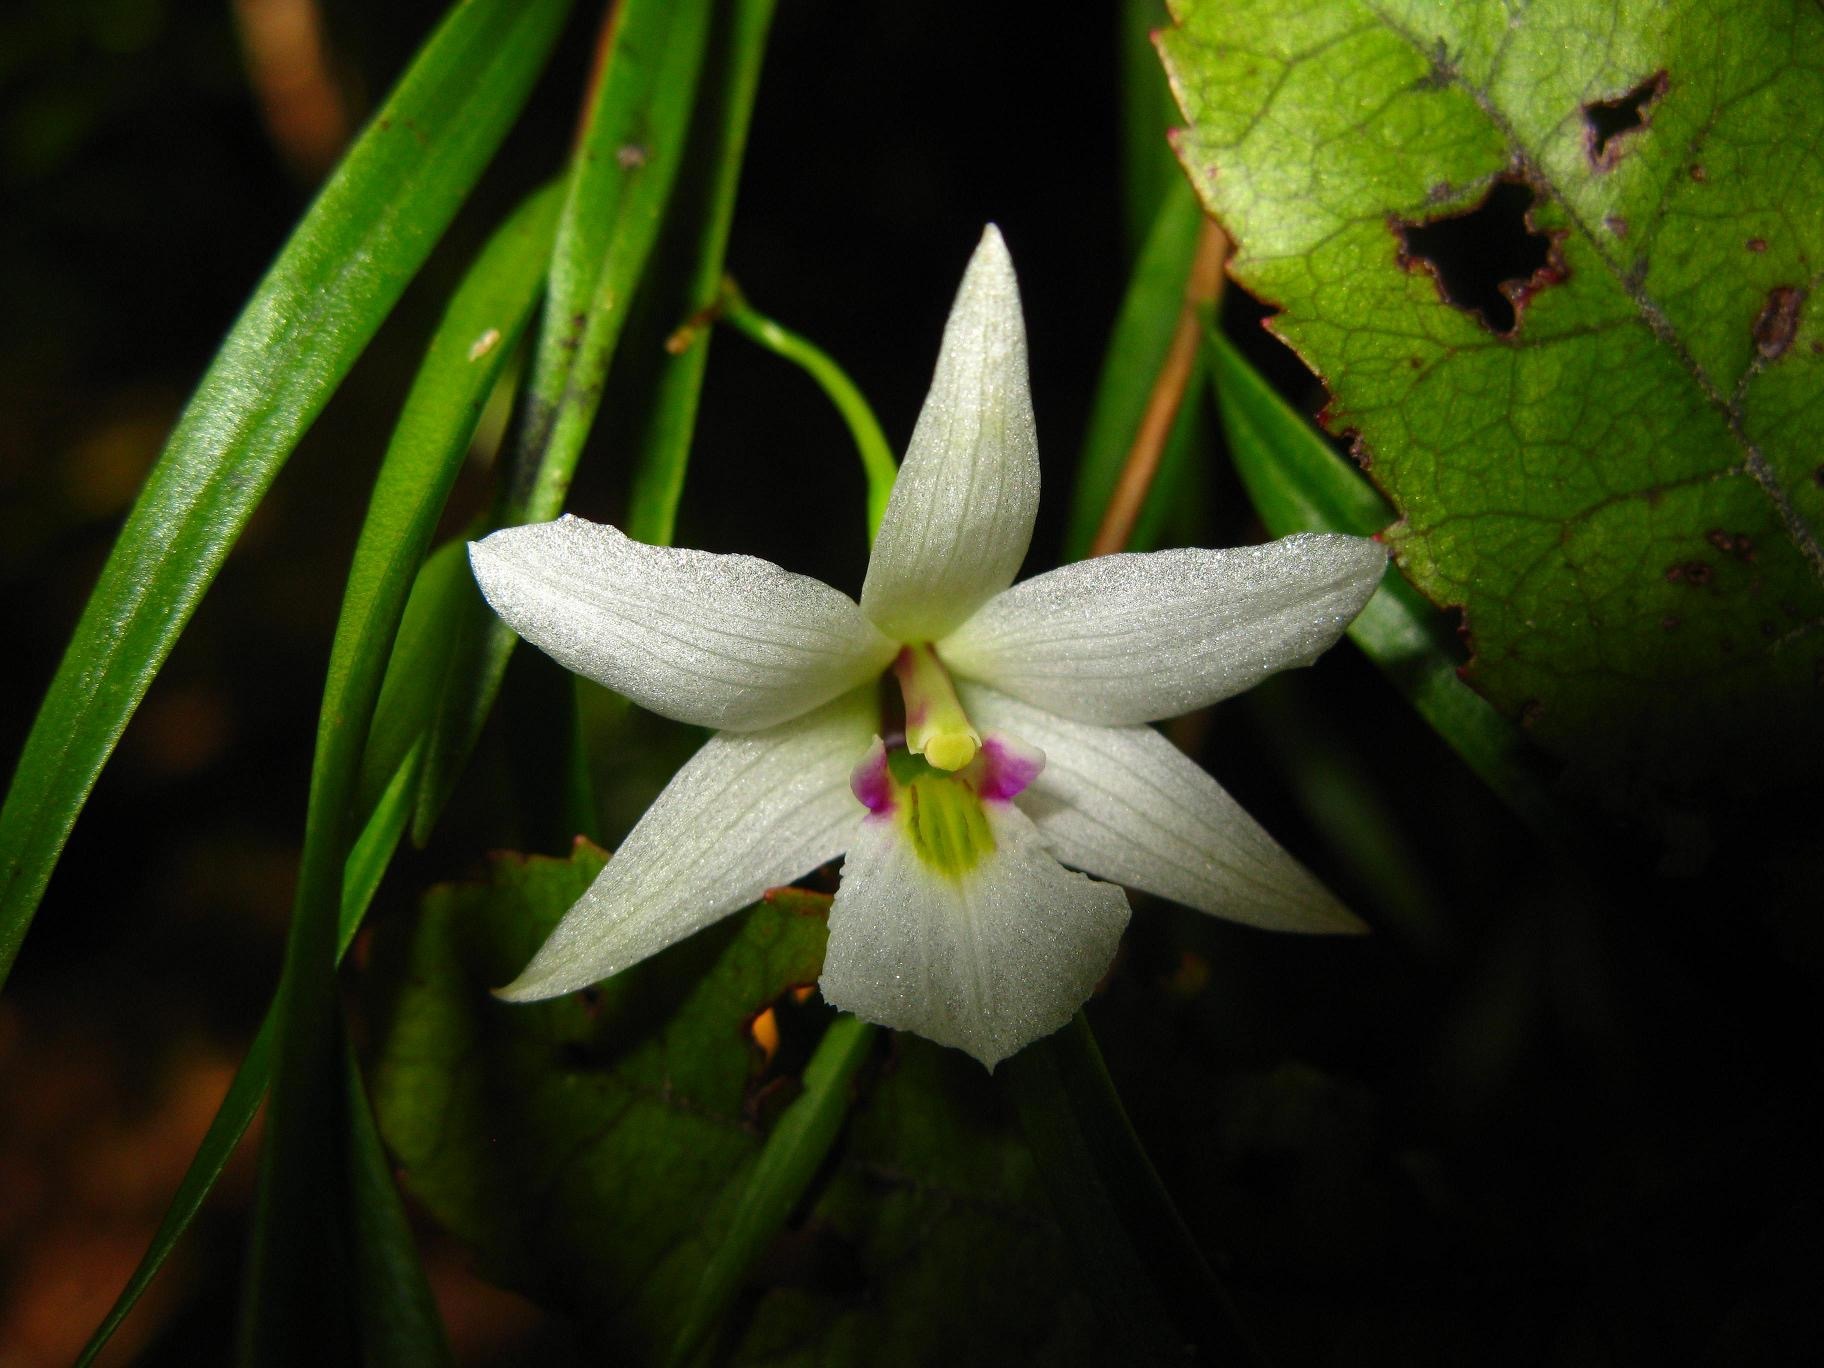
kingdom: Plantae
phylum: Tracheophyta
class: Liliopsida
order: Asparagales
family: Orchidaceae
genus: Dendrobium
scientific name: Dendrobium cunninghamii
